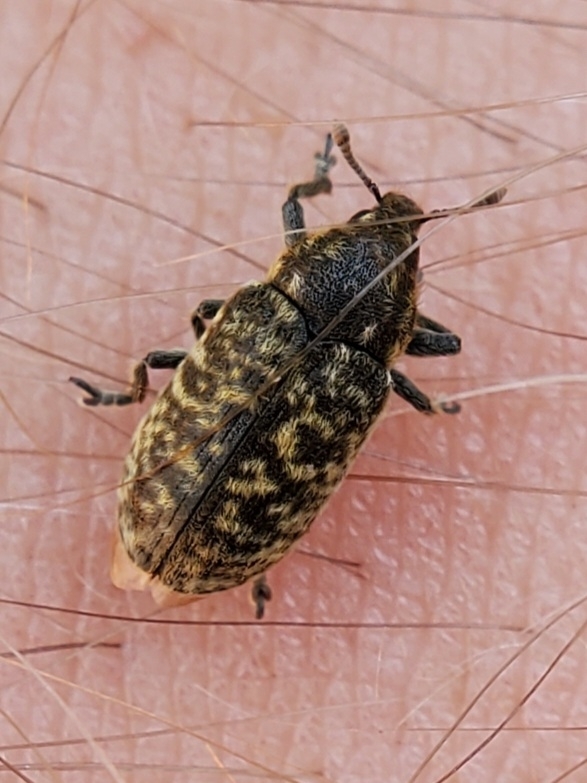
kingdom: Animalia
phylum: Arthropoda
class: Insecta
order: Coleoptera
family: Curculionidae
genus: Rhinocyllus
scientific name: Rhinocyllus conicus
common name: Weevil
